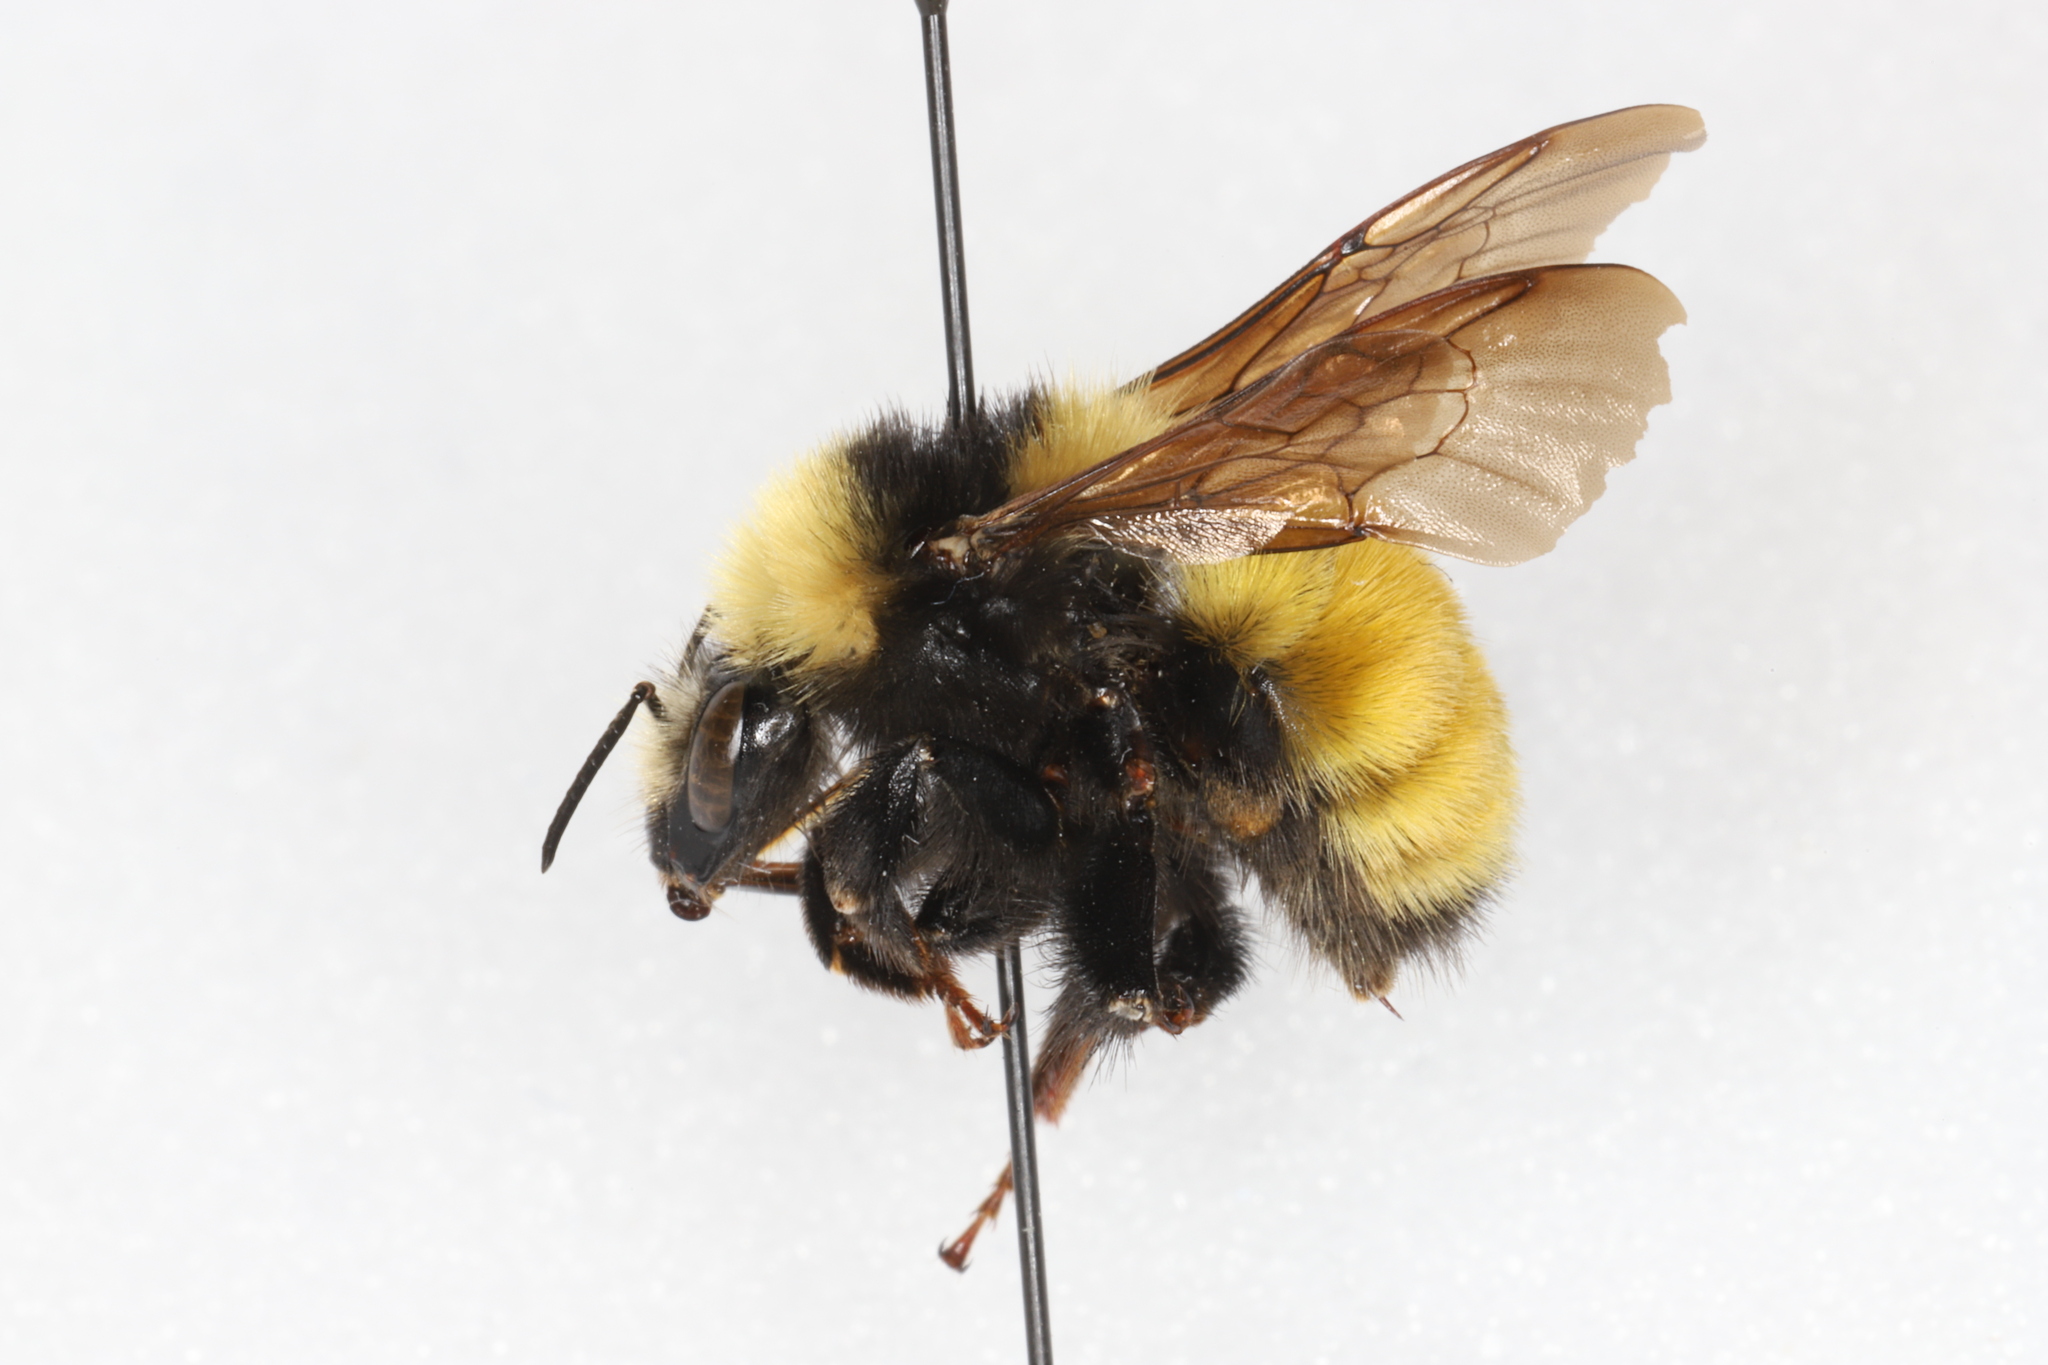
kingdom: Animalia
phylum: Arthropoda
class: Insecta
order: Hymenoptera
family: Apidae
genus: Bombus
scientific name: Bombus borealis
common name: Northern amber bumble bee
